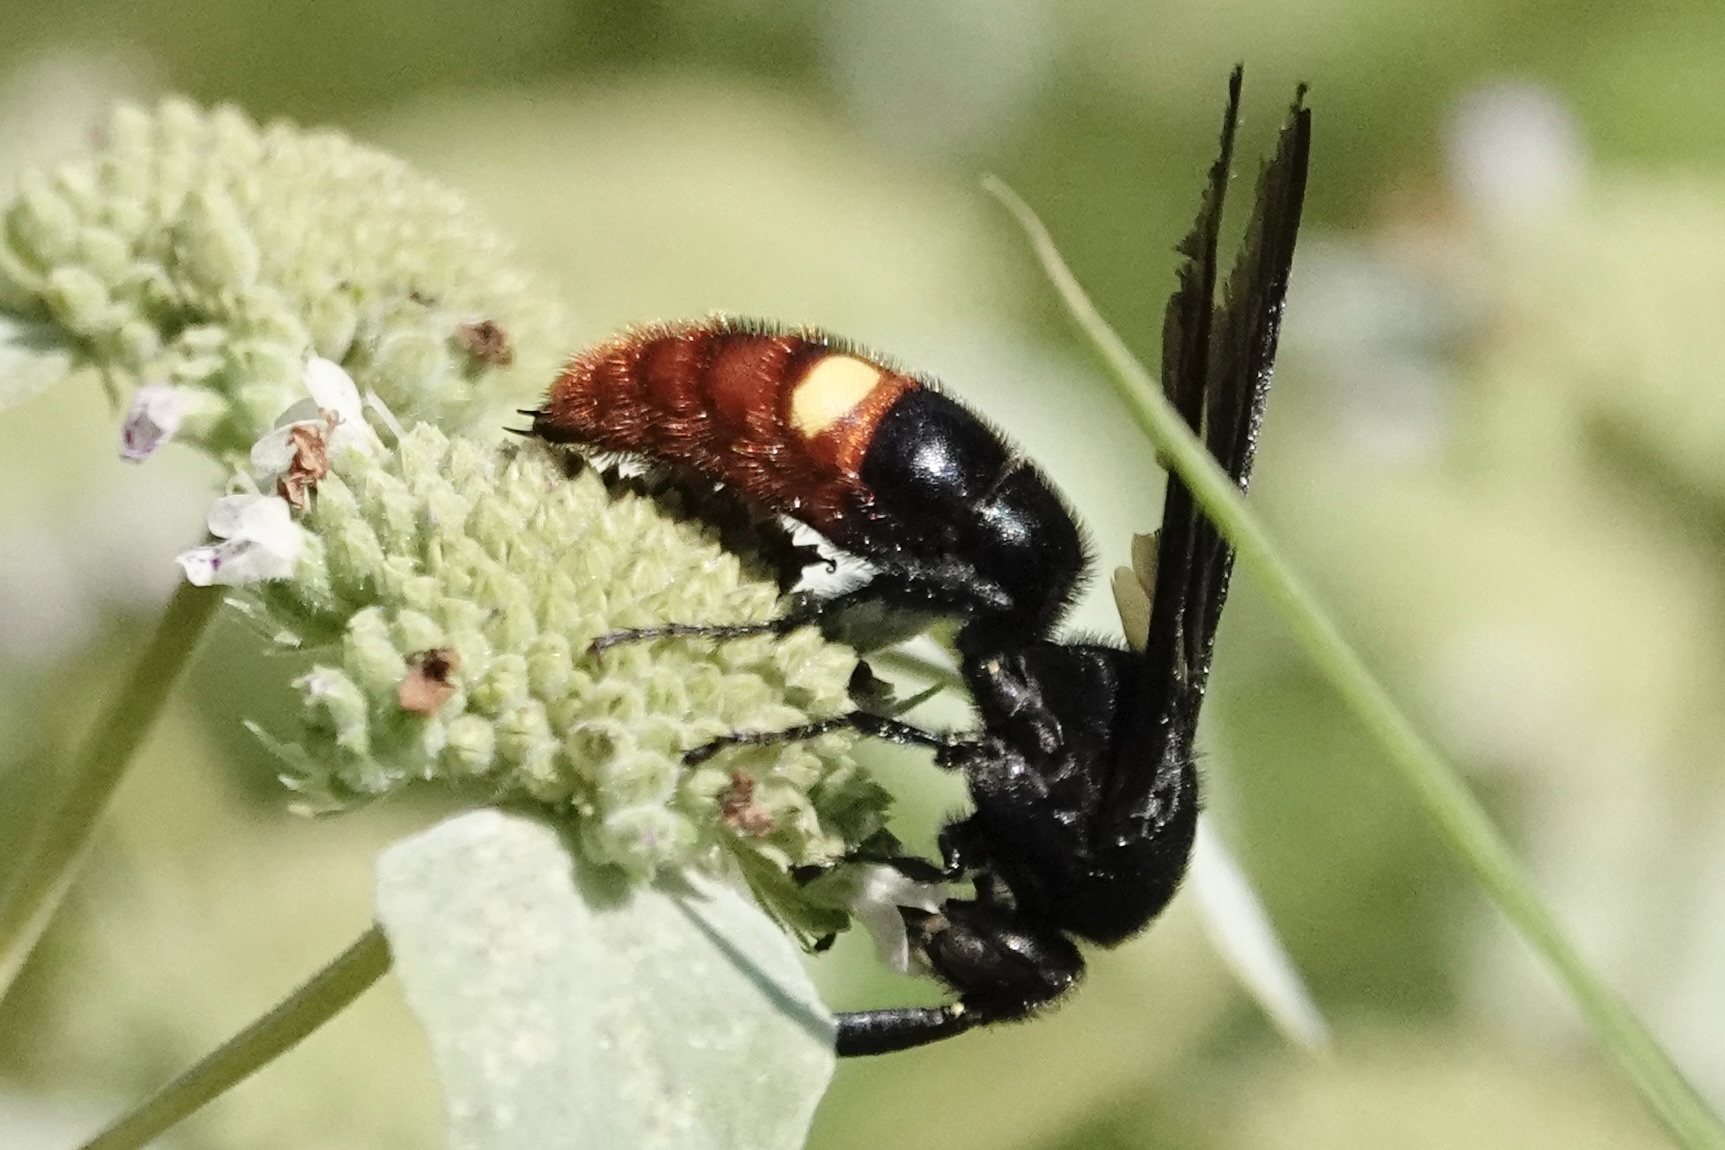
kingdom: Animalia
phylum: Arthropoda
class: Insecta
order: Hymenoptera
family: Scoliidae
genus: Scolia
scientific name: Scolia dubia
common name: Blue-winged scoliid wasp
